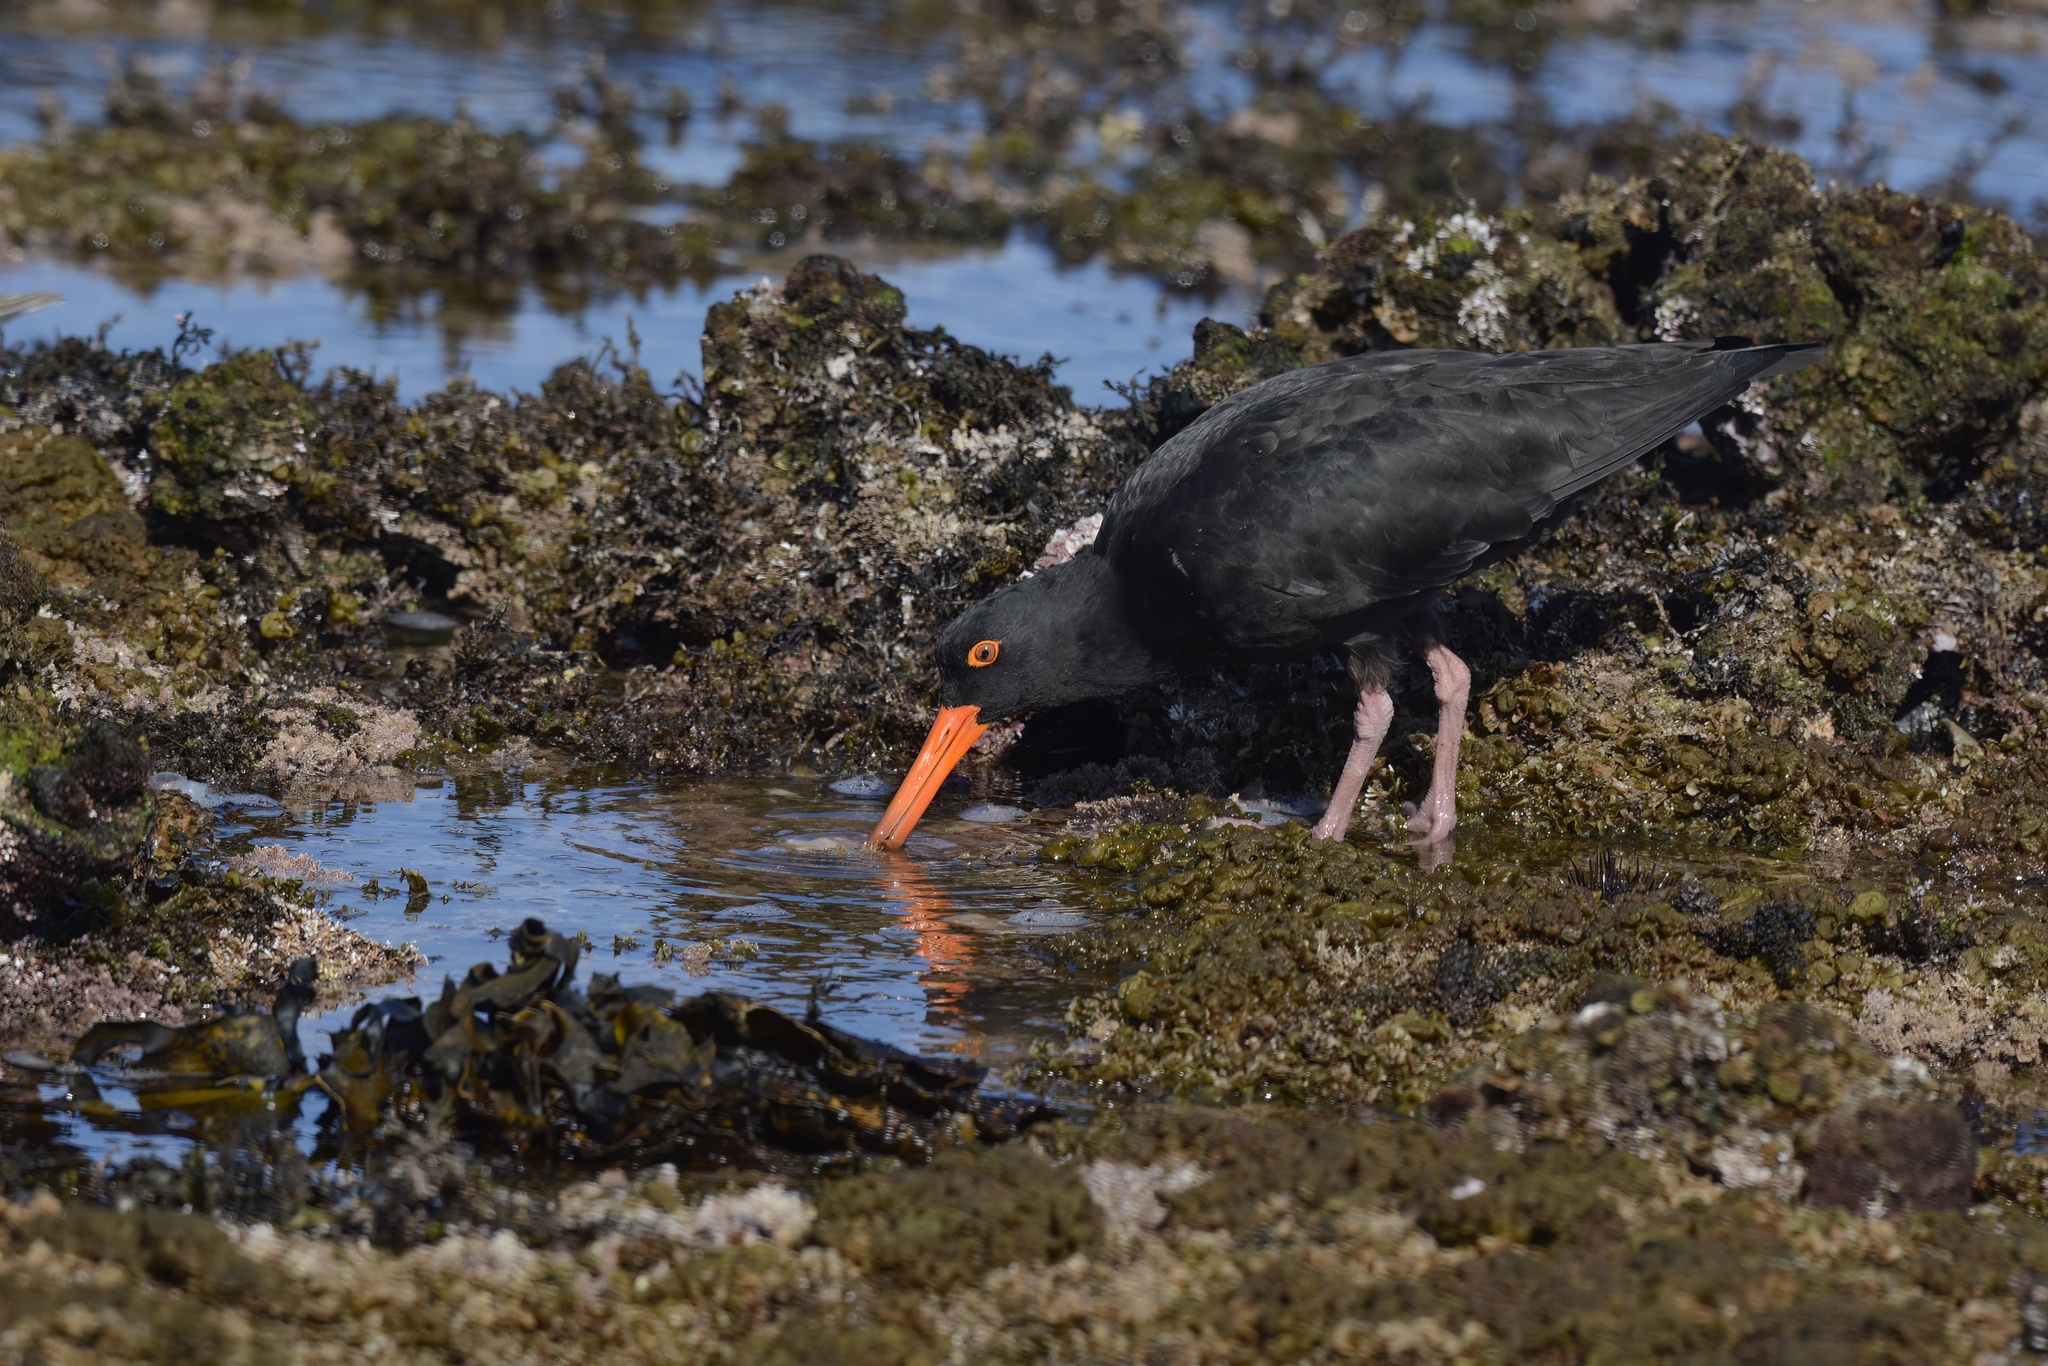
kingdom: Animalia
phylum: Chordata
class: Aves
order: Charadriiformes
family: Haematopodidae
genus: Haematopus
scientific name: Haematopus fuliginosus
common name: Sooty oystercatcher
